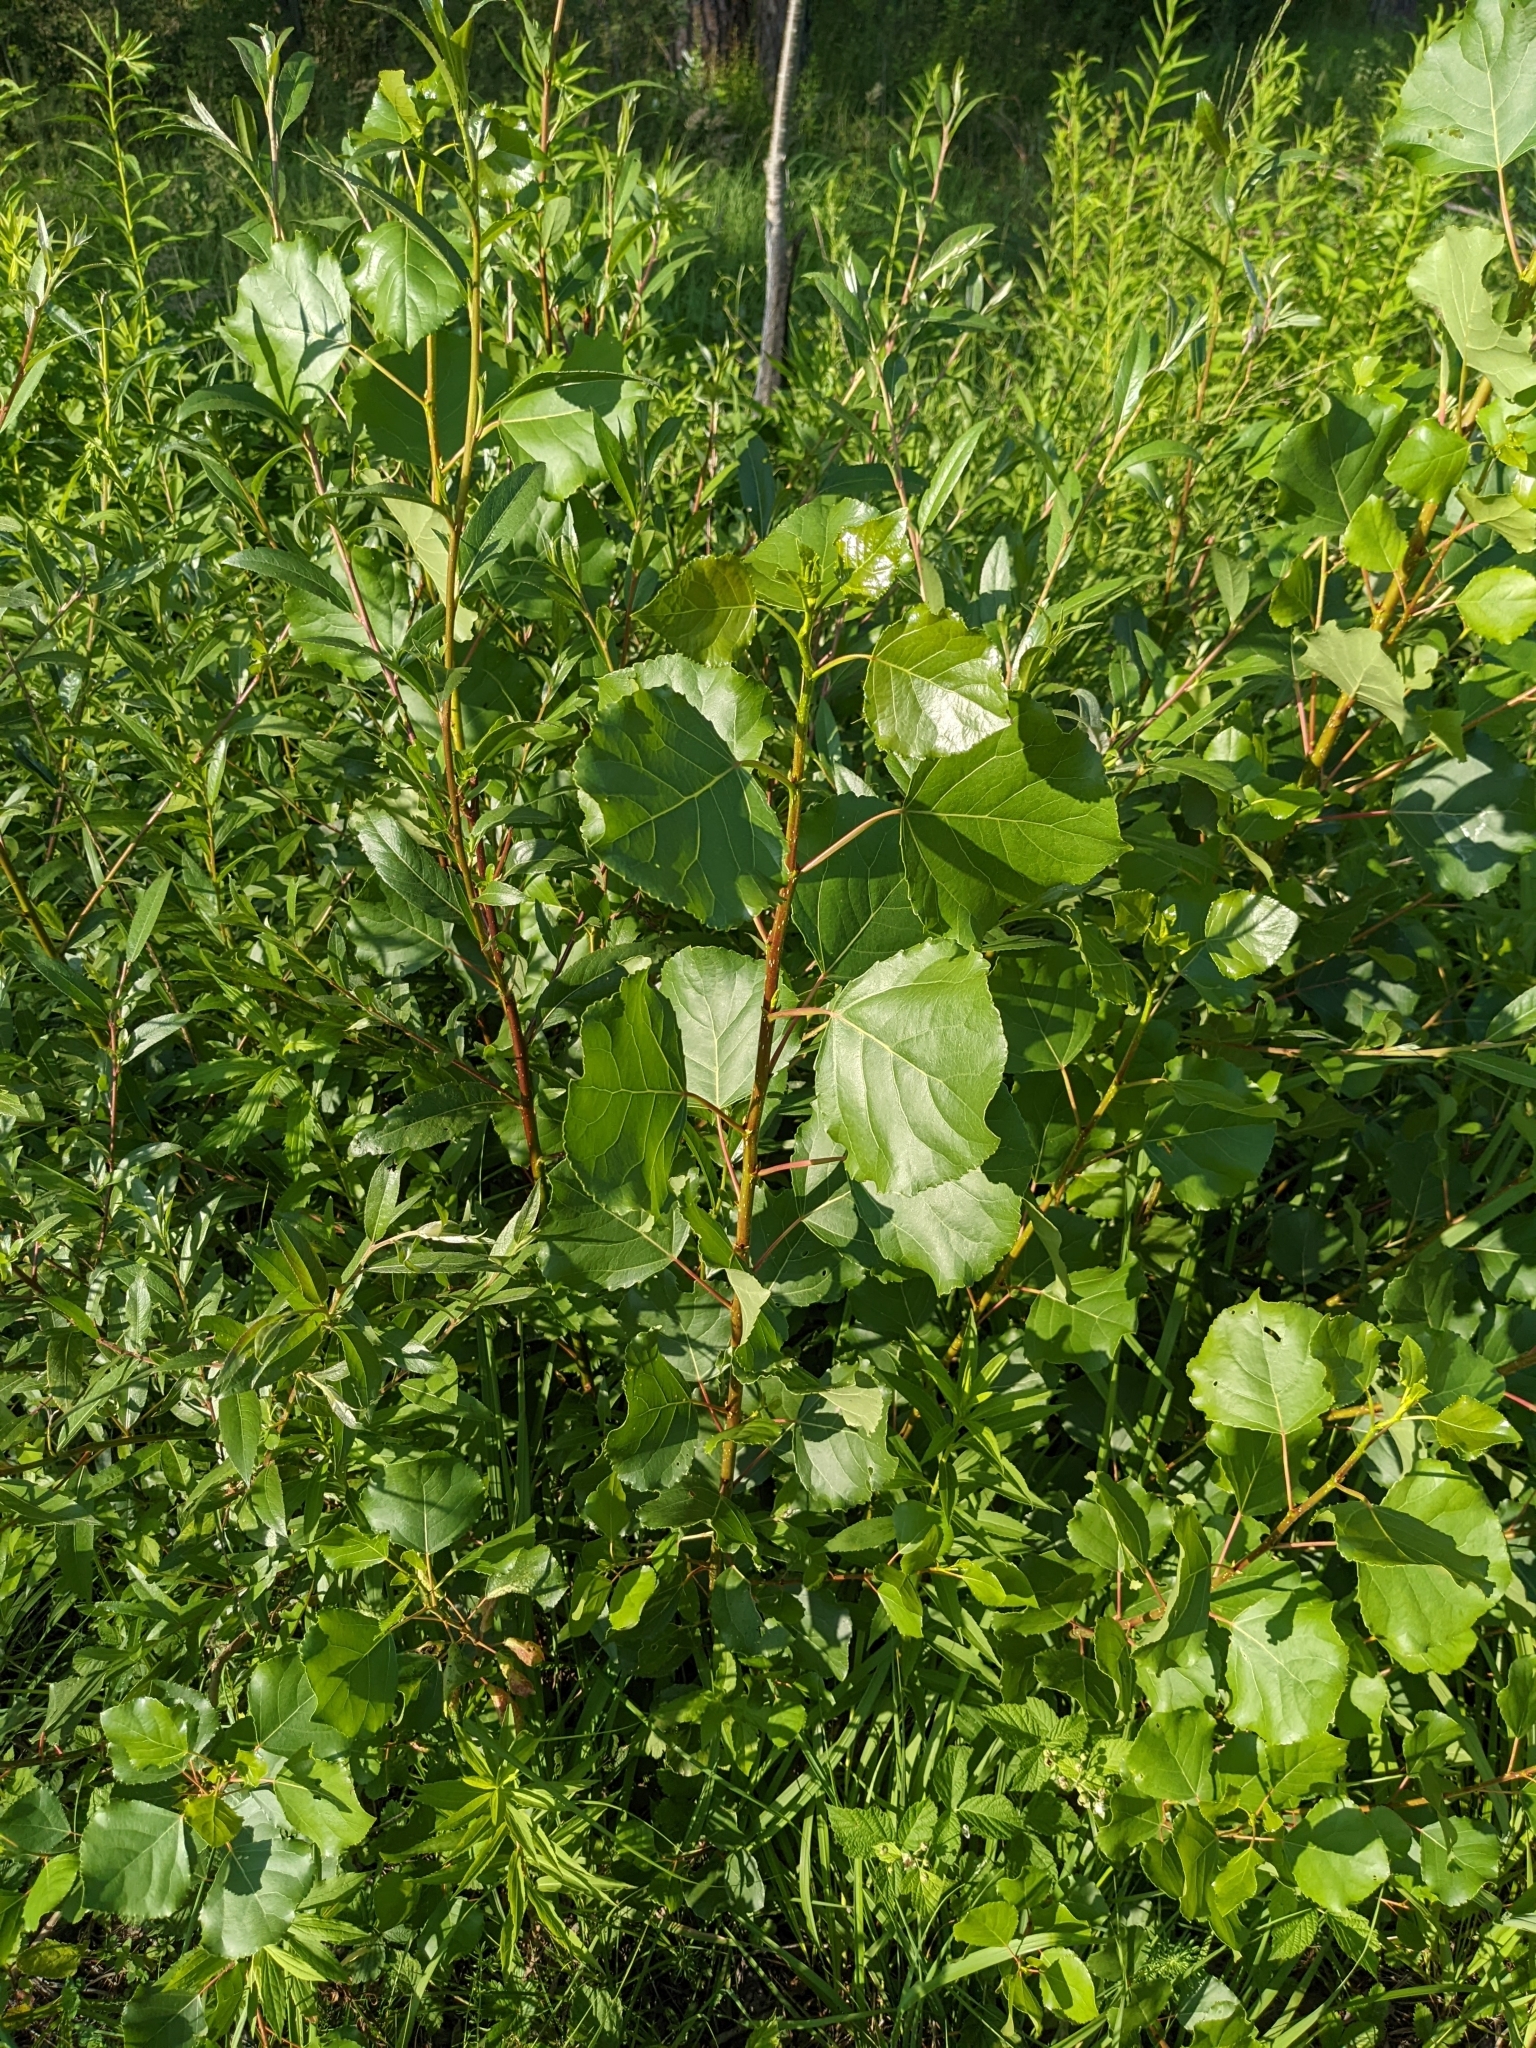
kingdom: Plantae
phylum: Tracheophyta
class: Magnoliopsida
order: Malpighiales
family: Salicaceae
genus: Populus
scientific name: Populus nigra
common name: Black poplar
